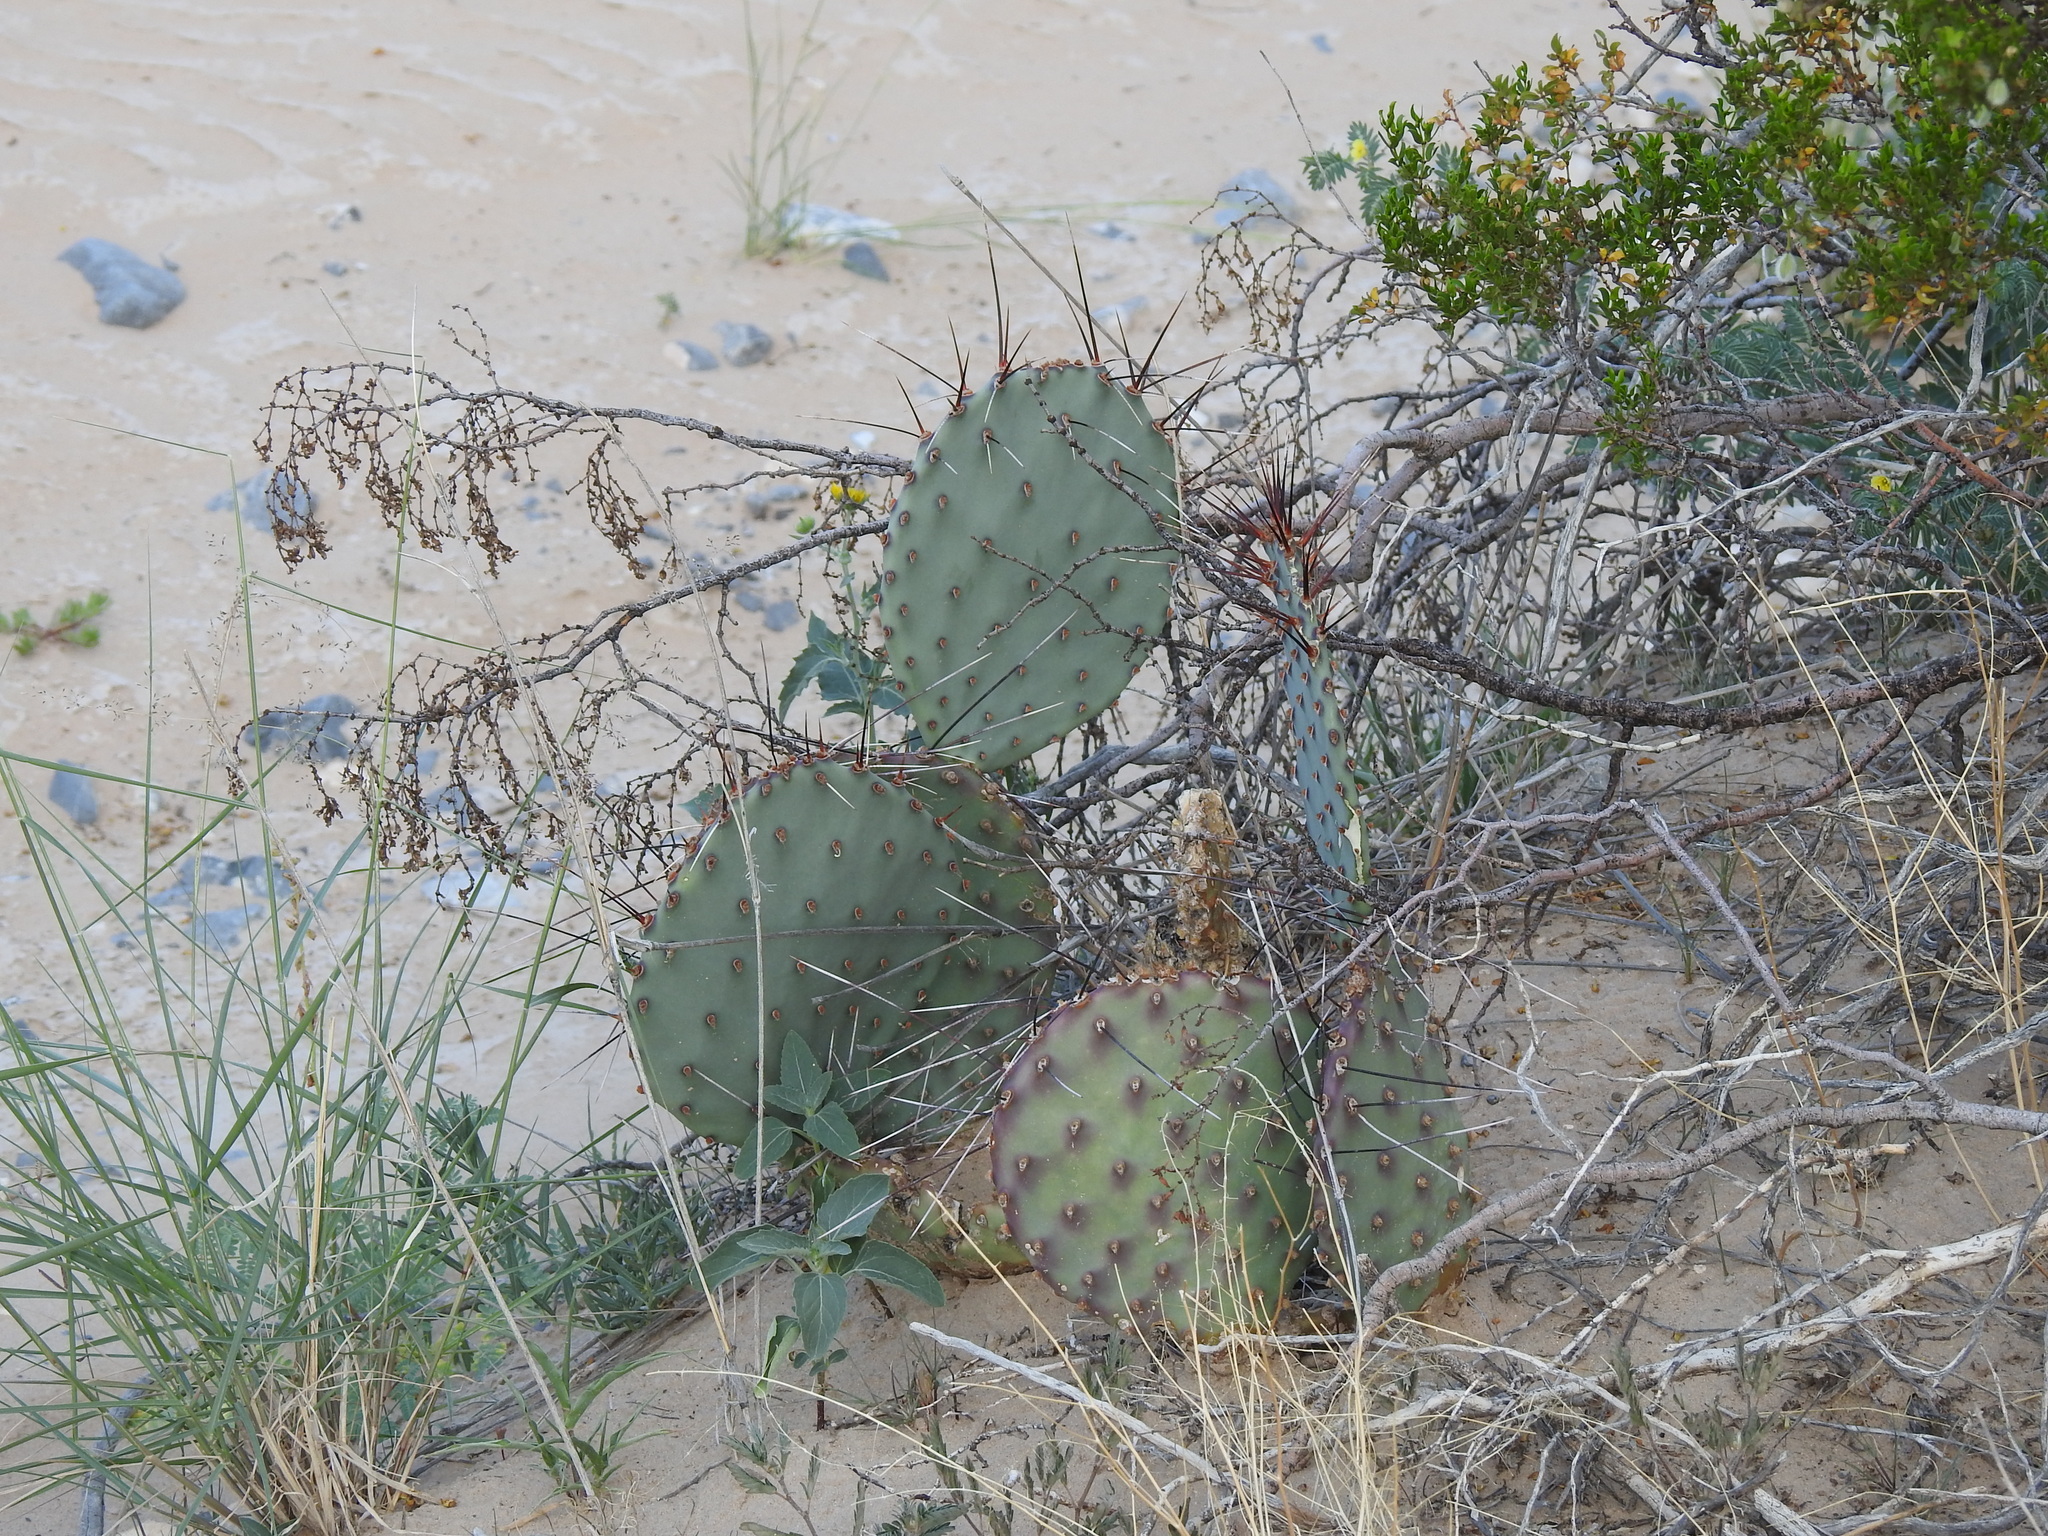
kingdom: Plantae
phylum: Tracheophyta
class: Magnoliopsida
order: Caryophyllales
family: Cactaceae
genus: Opuntia
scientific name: Opuntia macrocentra
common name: Purple prickly-pear
